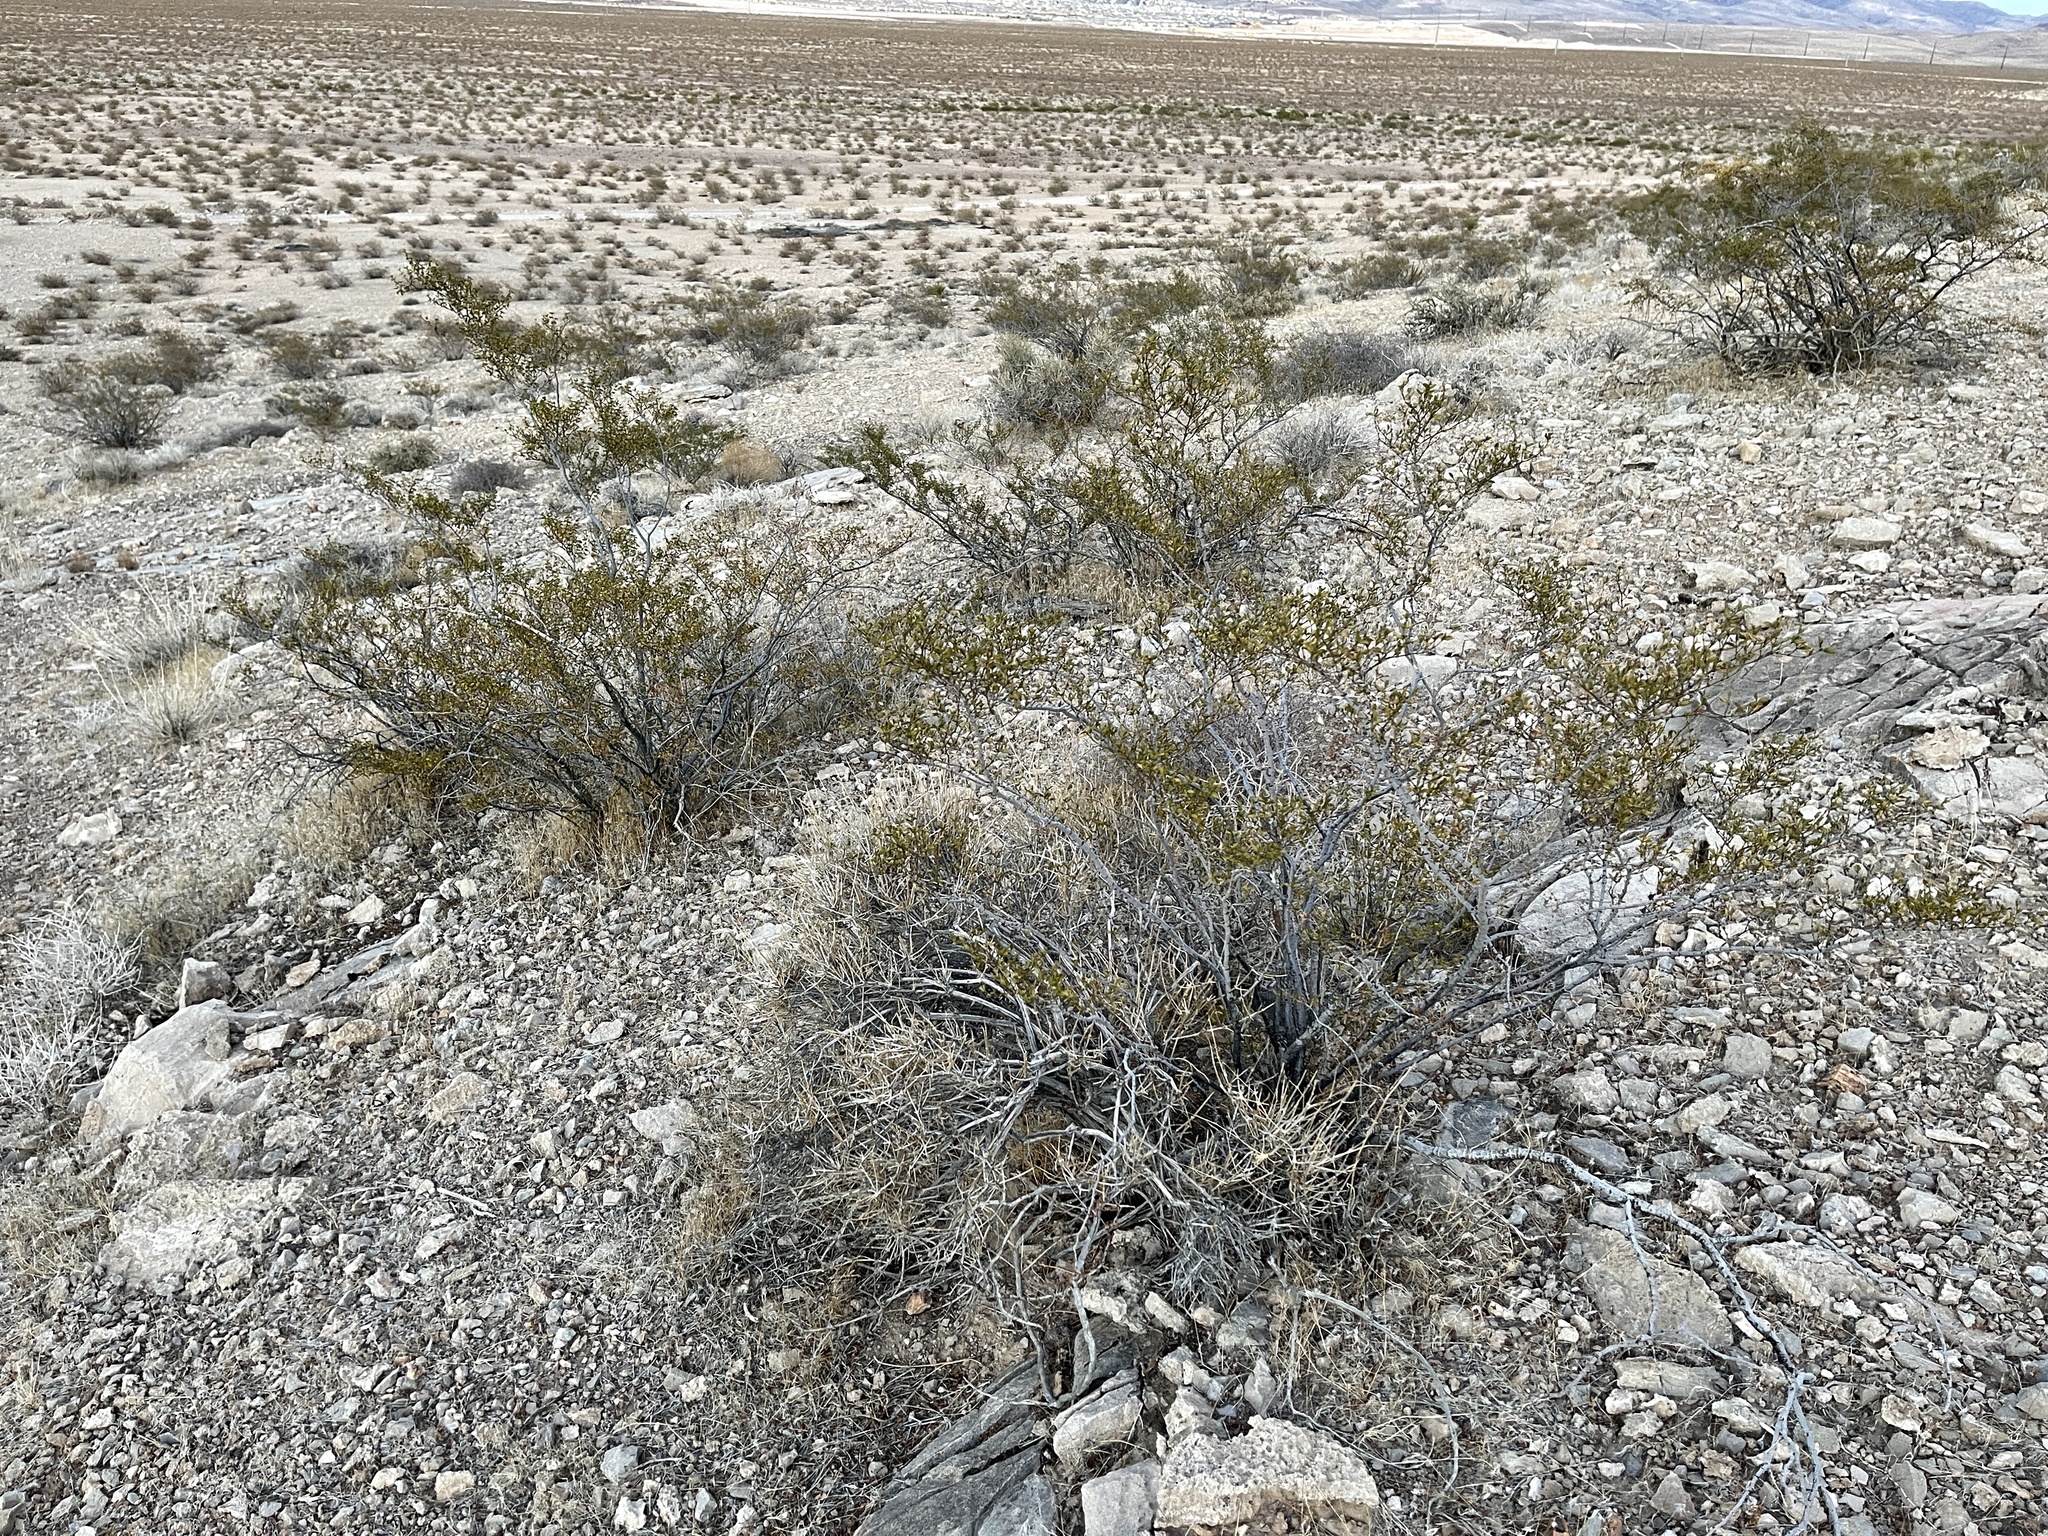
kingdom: Plantae
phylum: Tracheophyta
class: Magnoliopsida
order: Zygophyllales
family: Zygophyllaceae
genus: Larrea
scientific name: Larrea tridentata
